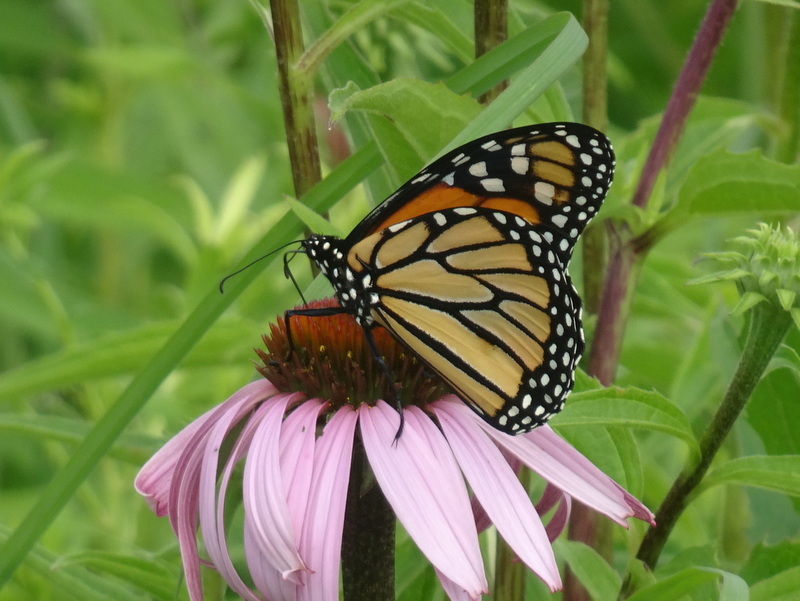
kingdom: Animalia
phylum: Arthropoda
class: Insecta
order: Lepidoptera
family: Nymphalidae
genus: Danaus
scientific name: Danaus plexippus
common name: Monarch
